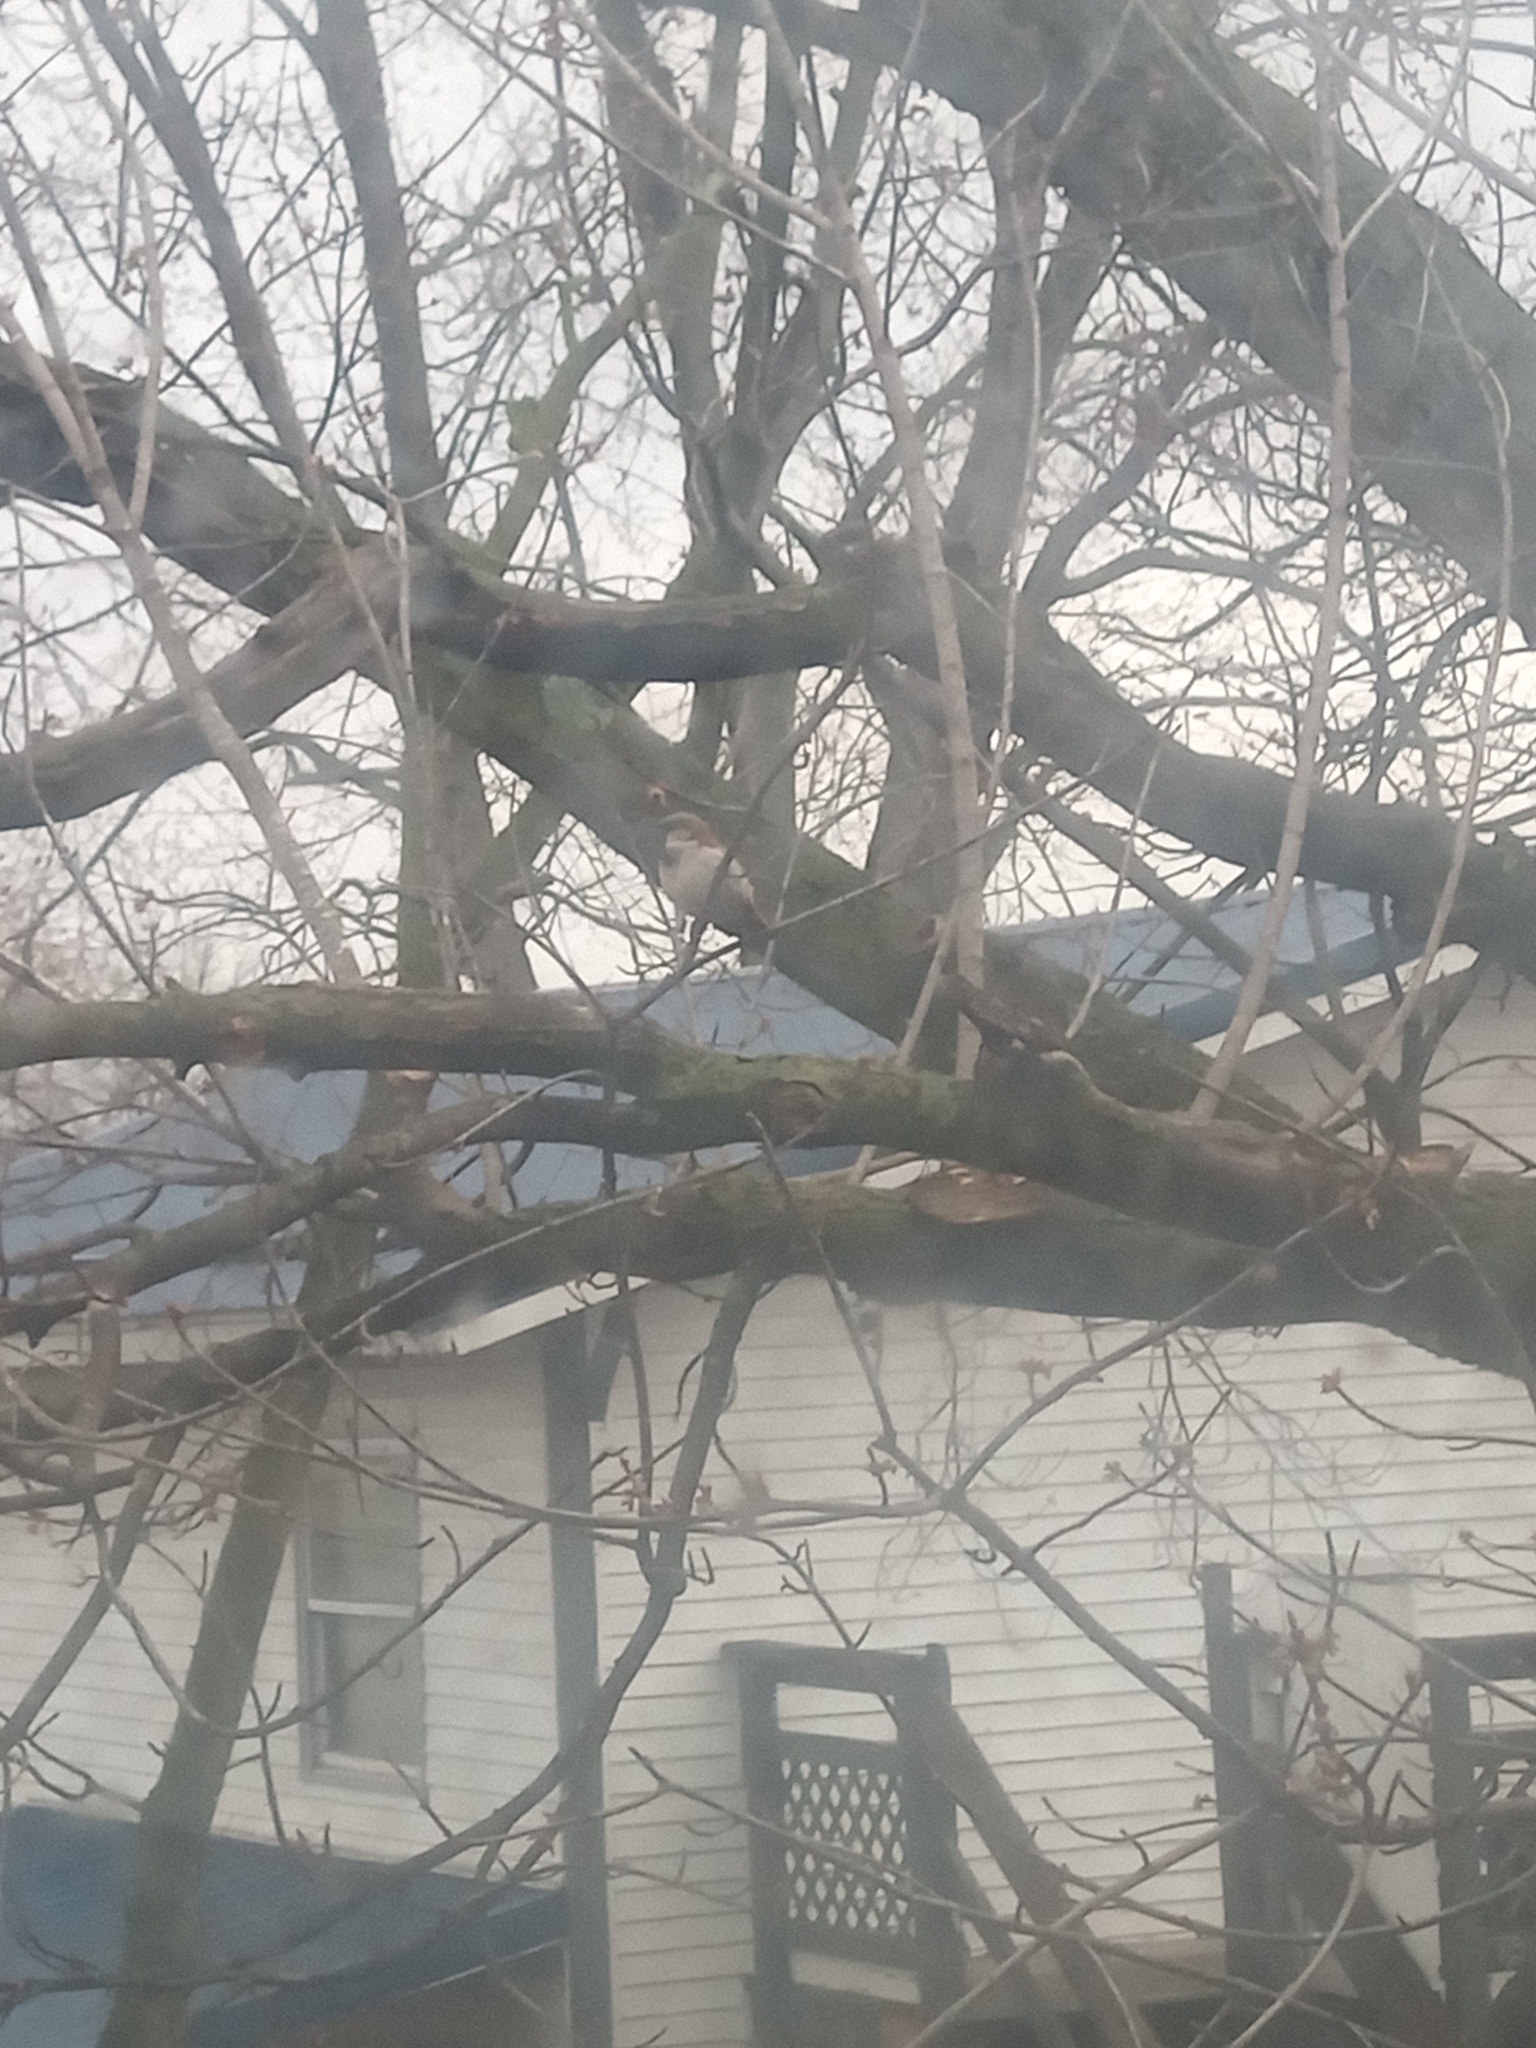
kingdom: Animalia
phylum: Chordata
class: Aves
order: Passeriformes
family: Passeridae
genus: Passer
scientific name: Passer domesticus
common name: House sparrow
